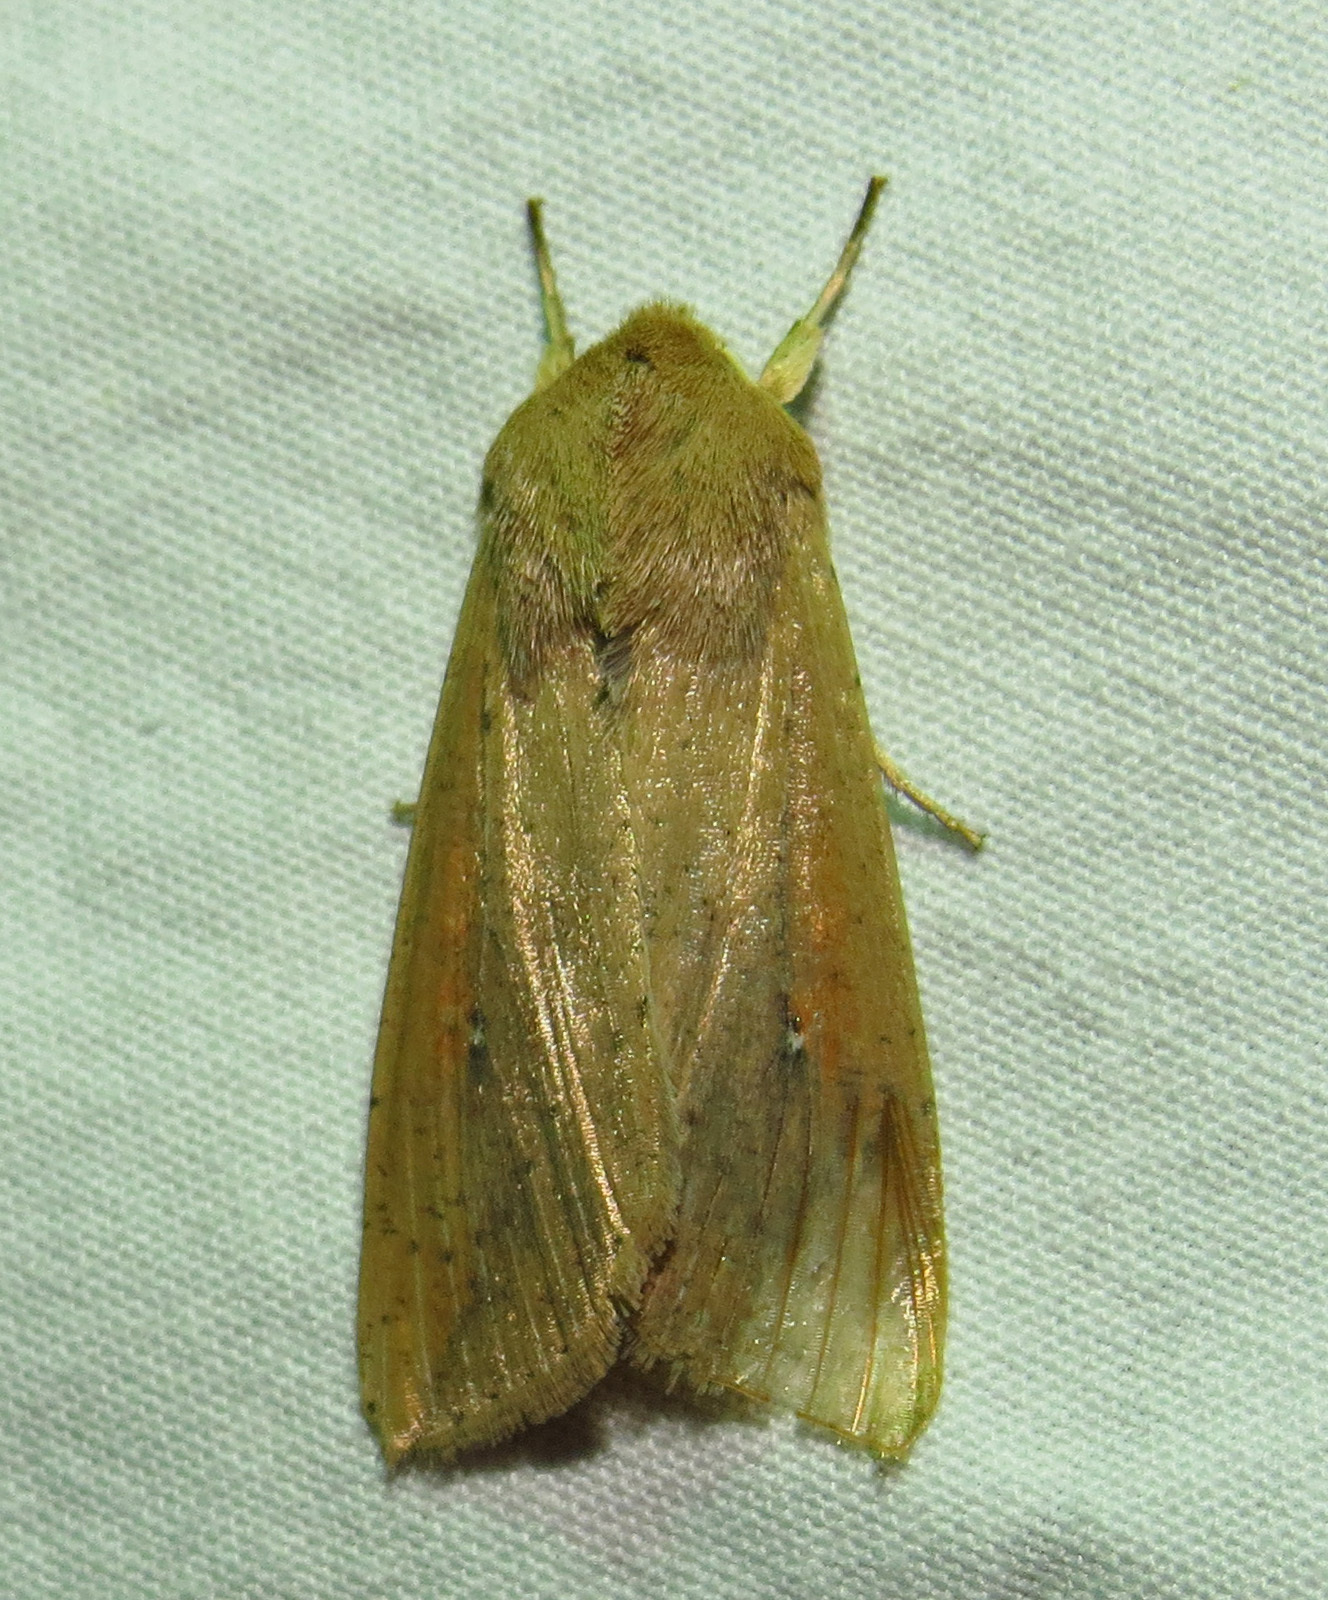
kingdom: Animalia
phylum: Arthropoda
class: Insecta
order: Lepidoptera
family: Noctuidae
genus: Mythimna
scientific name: Mythimna unipuncta
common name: White-speck
